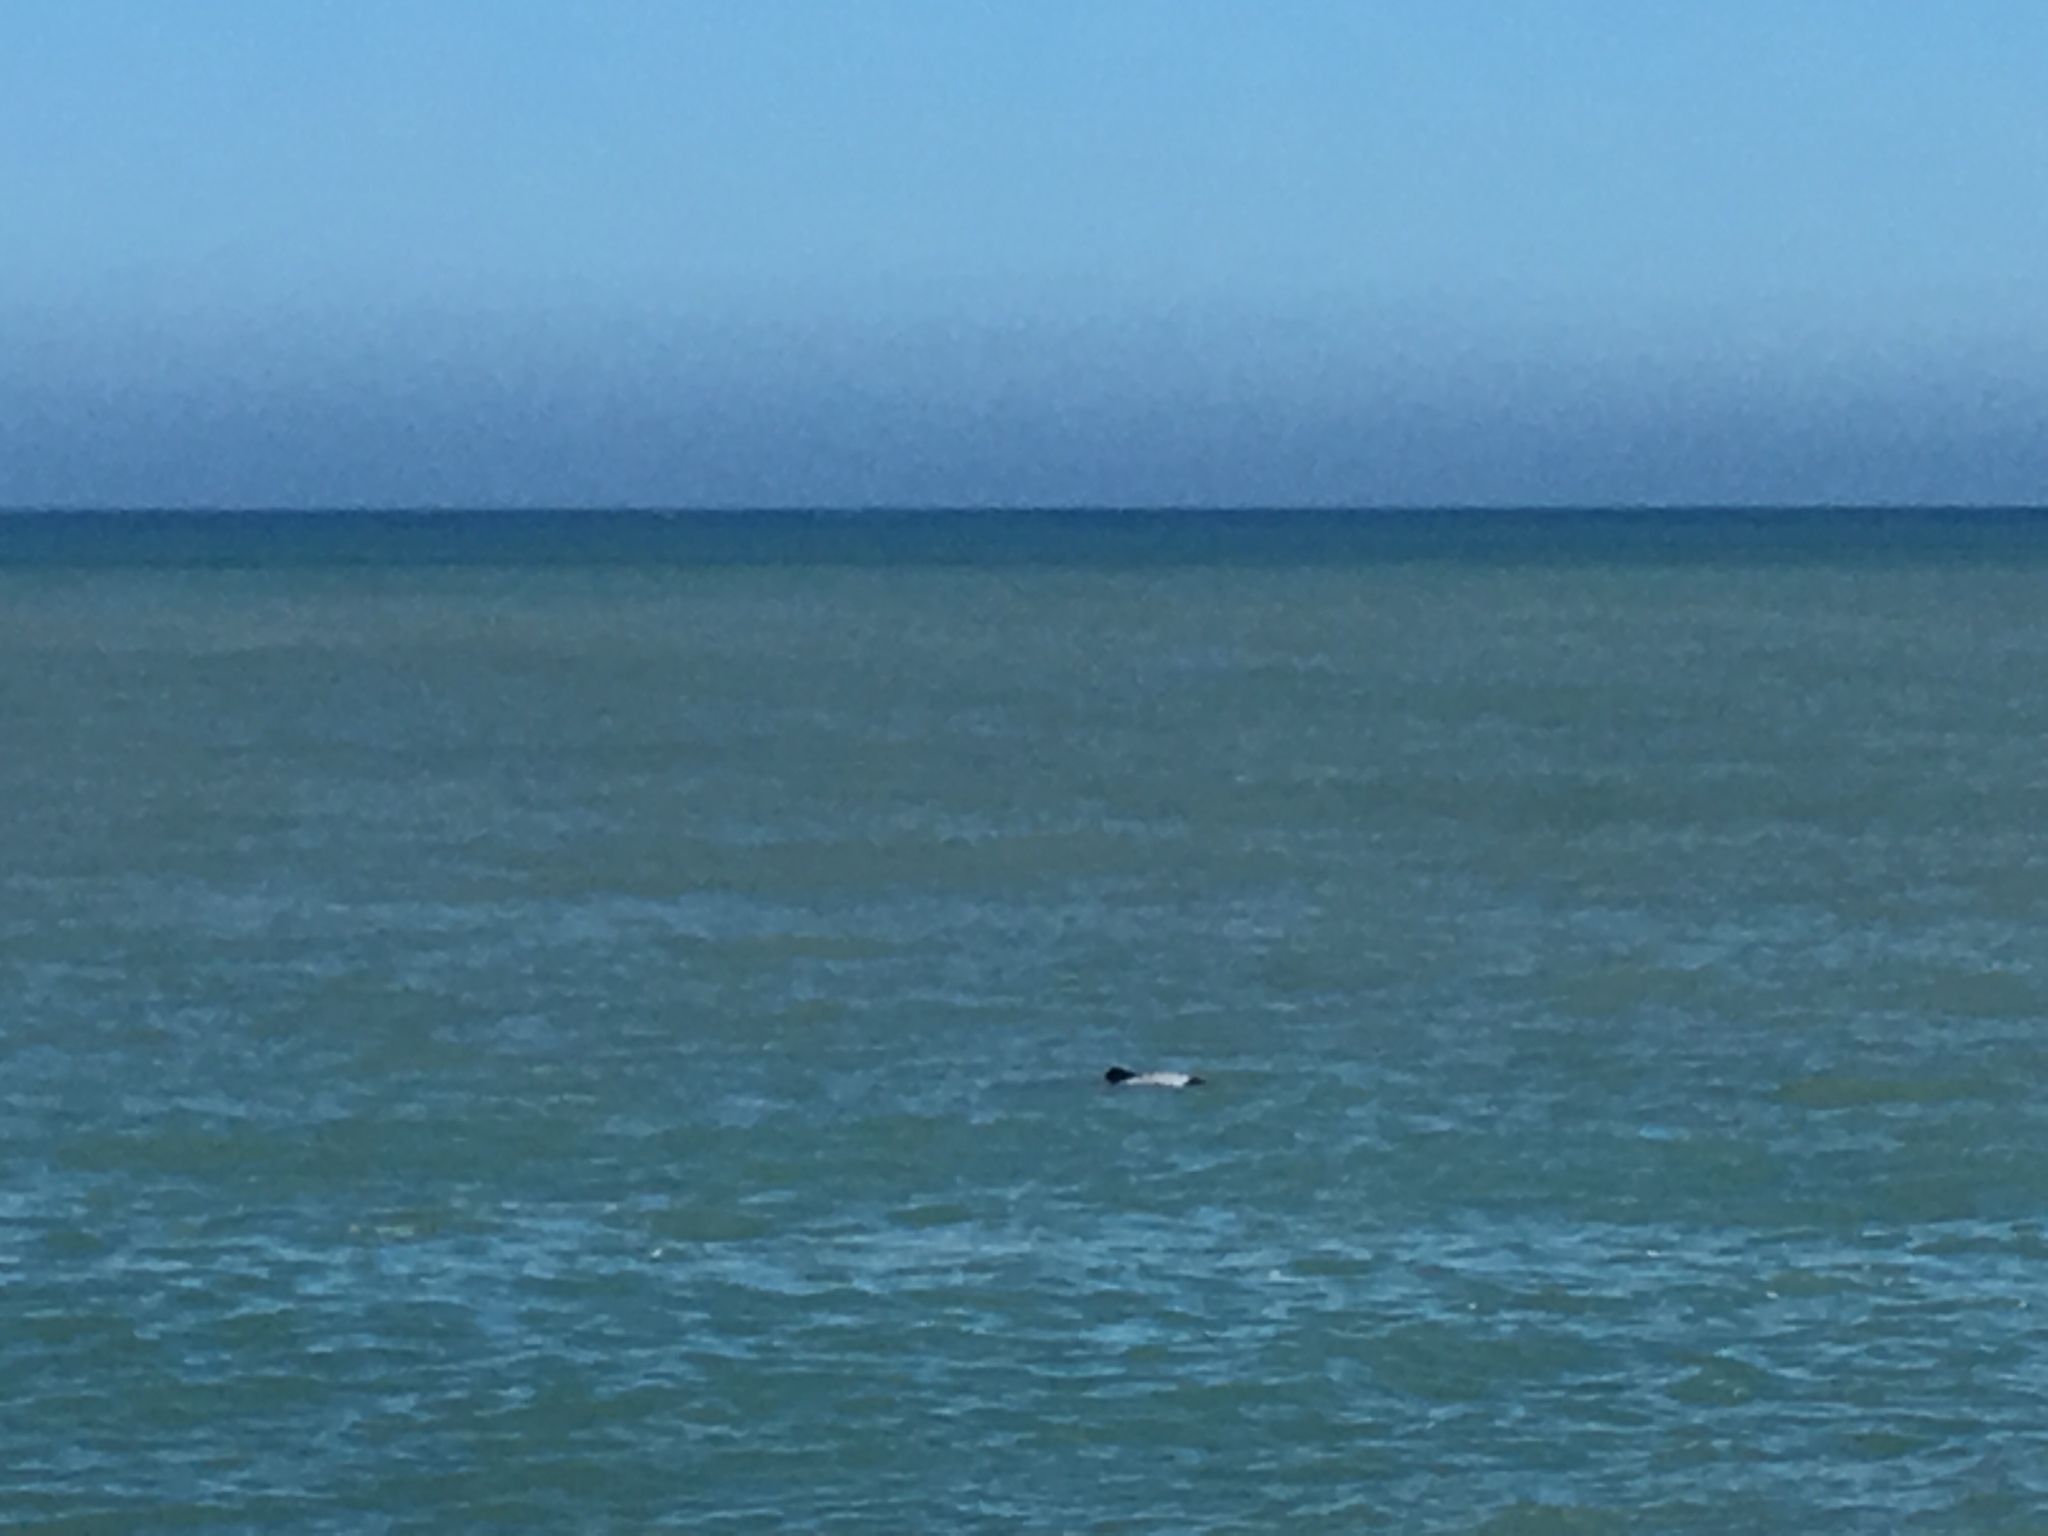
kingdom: Animalia
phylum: Chordata
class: Mammalia
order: Cetacea
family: Delphinidae
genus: Cephalorhynchus
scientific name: Cephalorhynchus hectori
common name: Hector's dolphin
